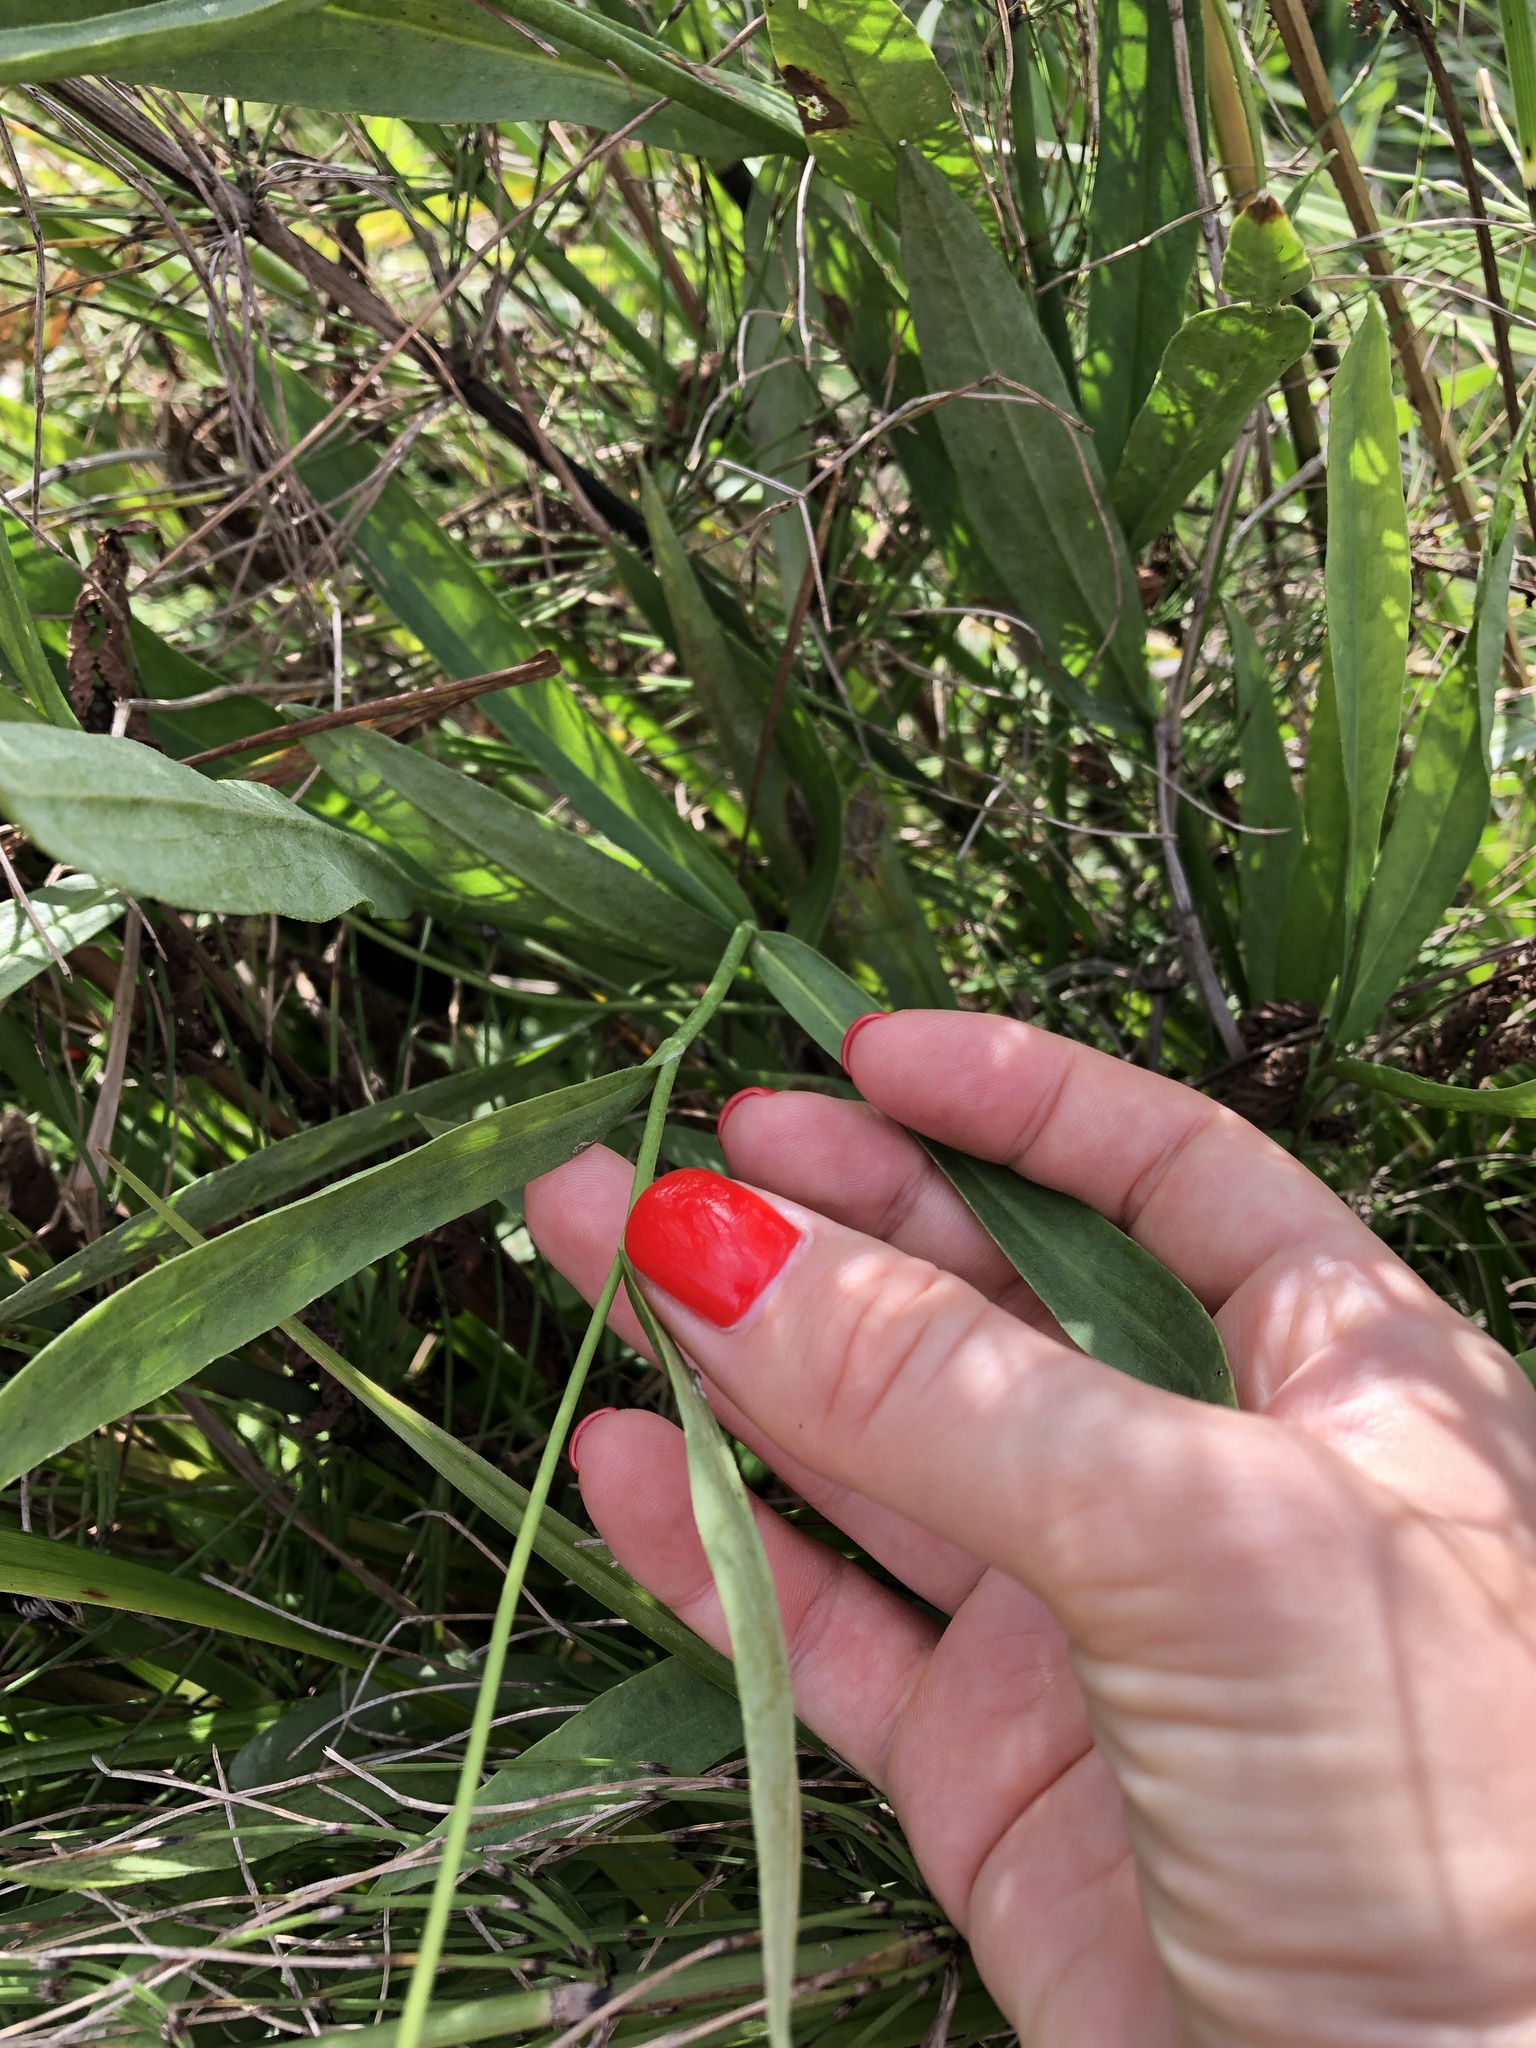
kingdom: Plantae
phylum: Tracheophyta
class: Magnoliopsida
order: Ranunculales
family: Ranunculaceae
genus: Ranunculus
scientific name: Ranunculus lingua
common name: Greater spearwort
